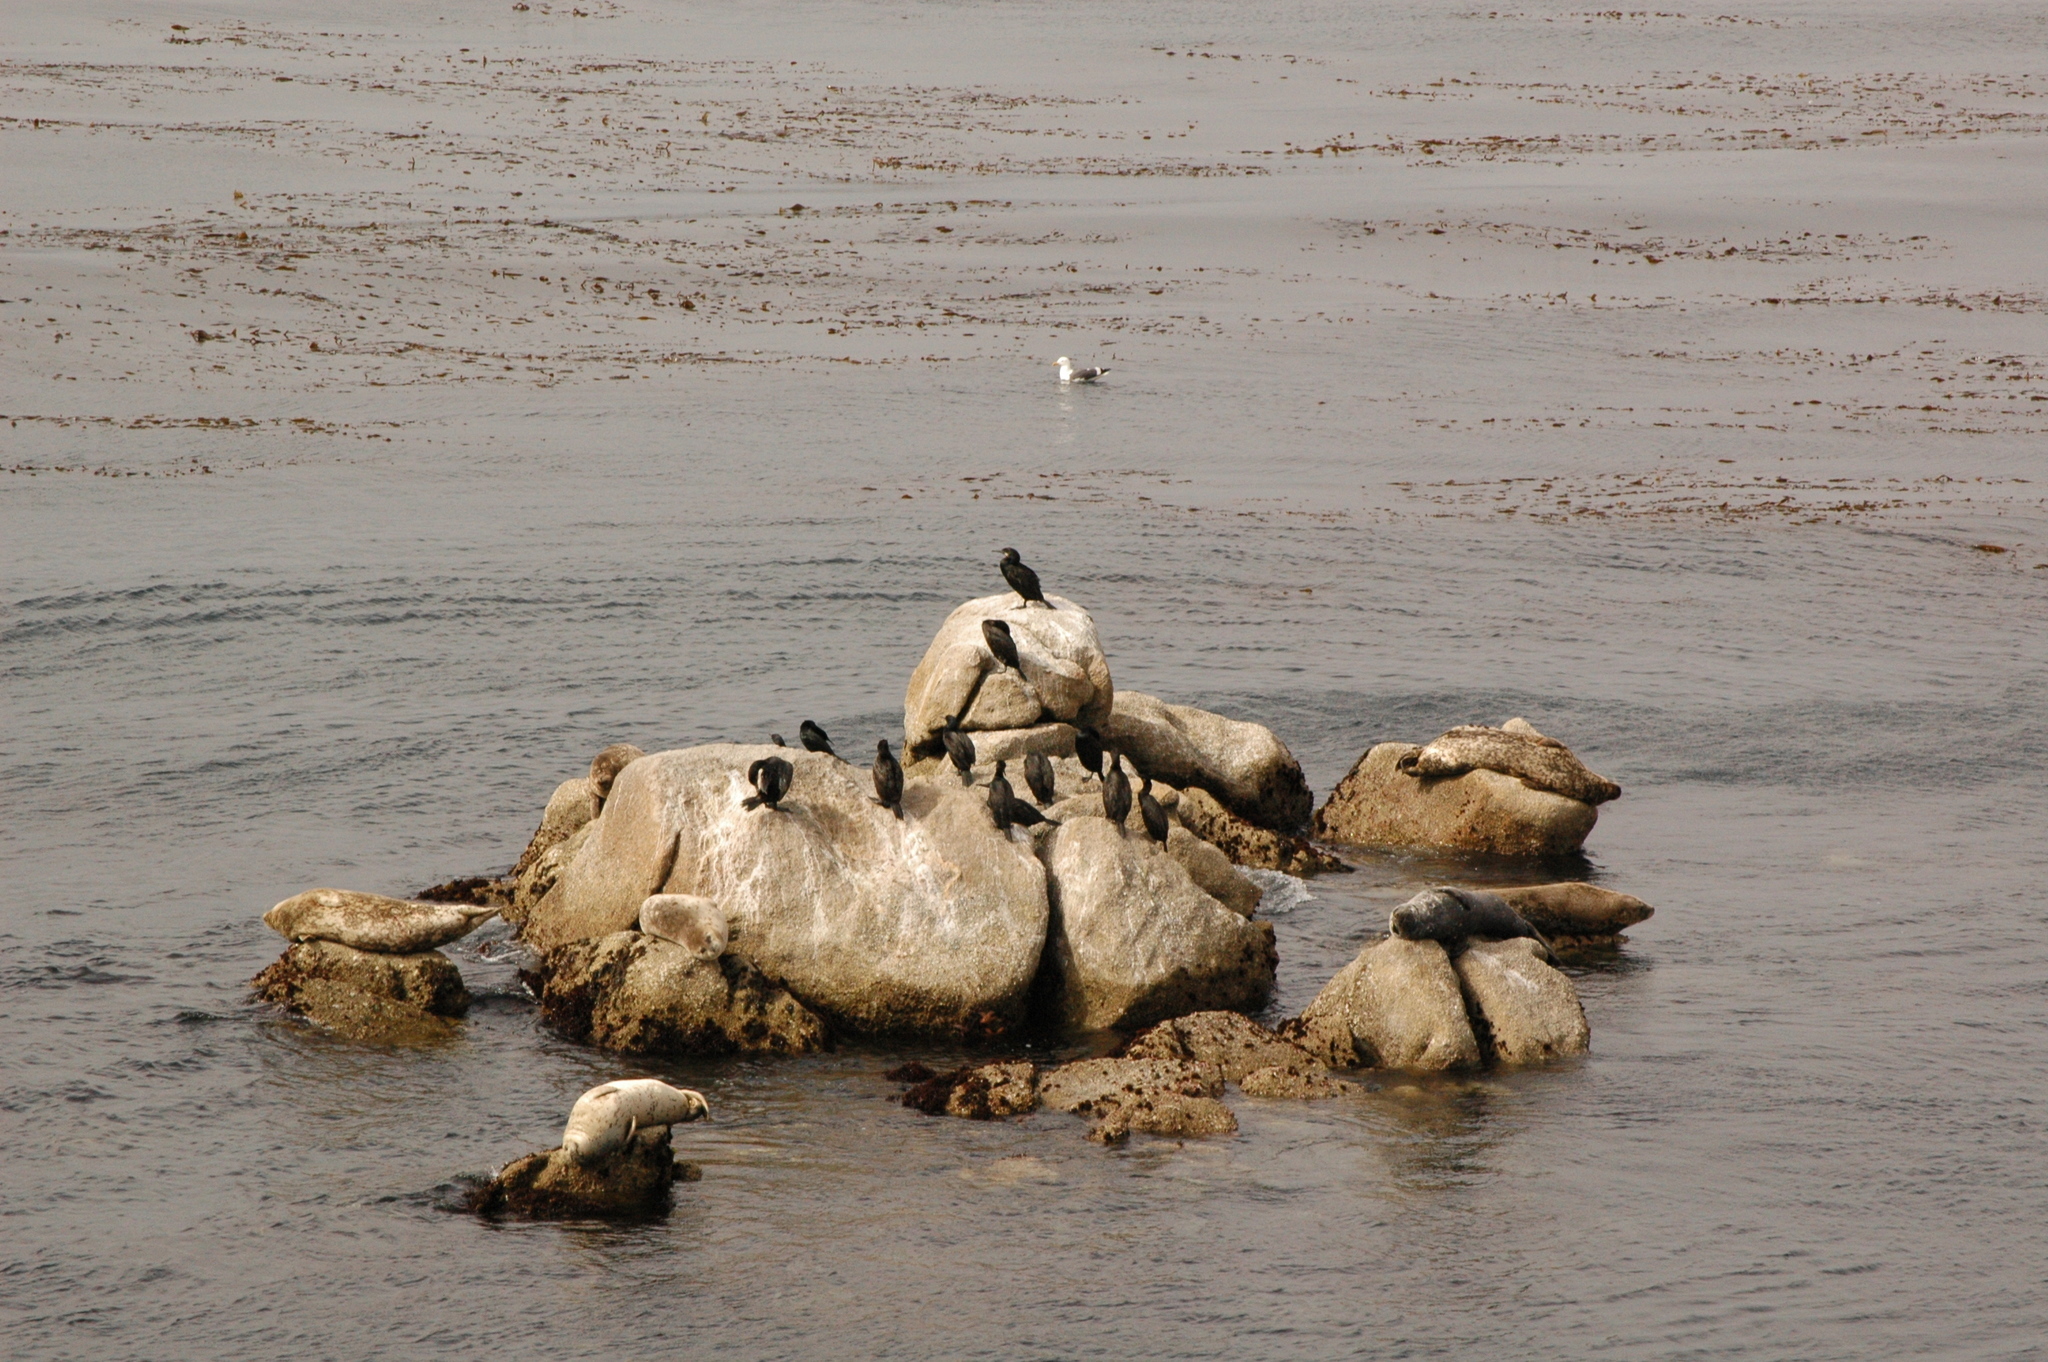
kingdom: Animalia
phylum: Chordata
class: Mammalia
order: Carnivora
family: Phocidae
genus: Phoca
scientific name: Phoca vitulina
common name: Harbor seal
